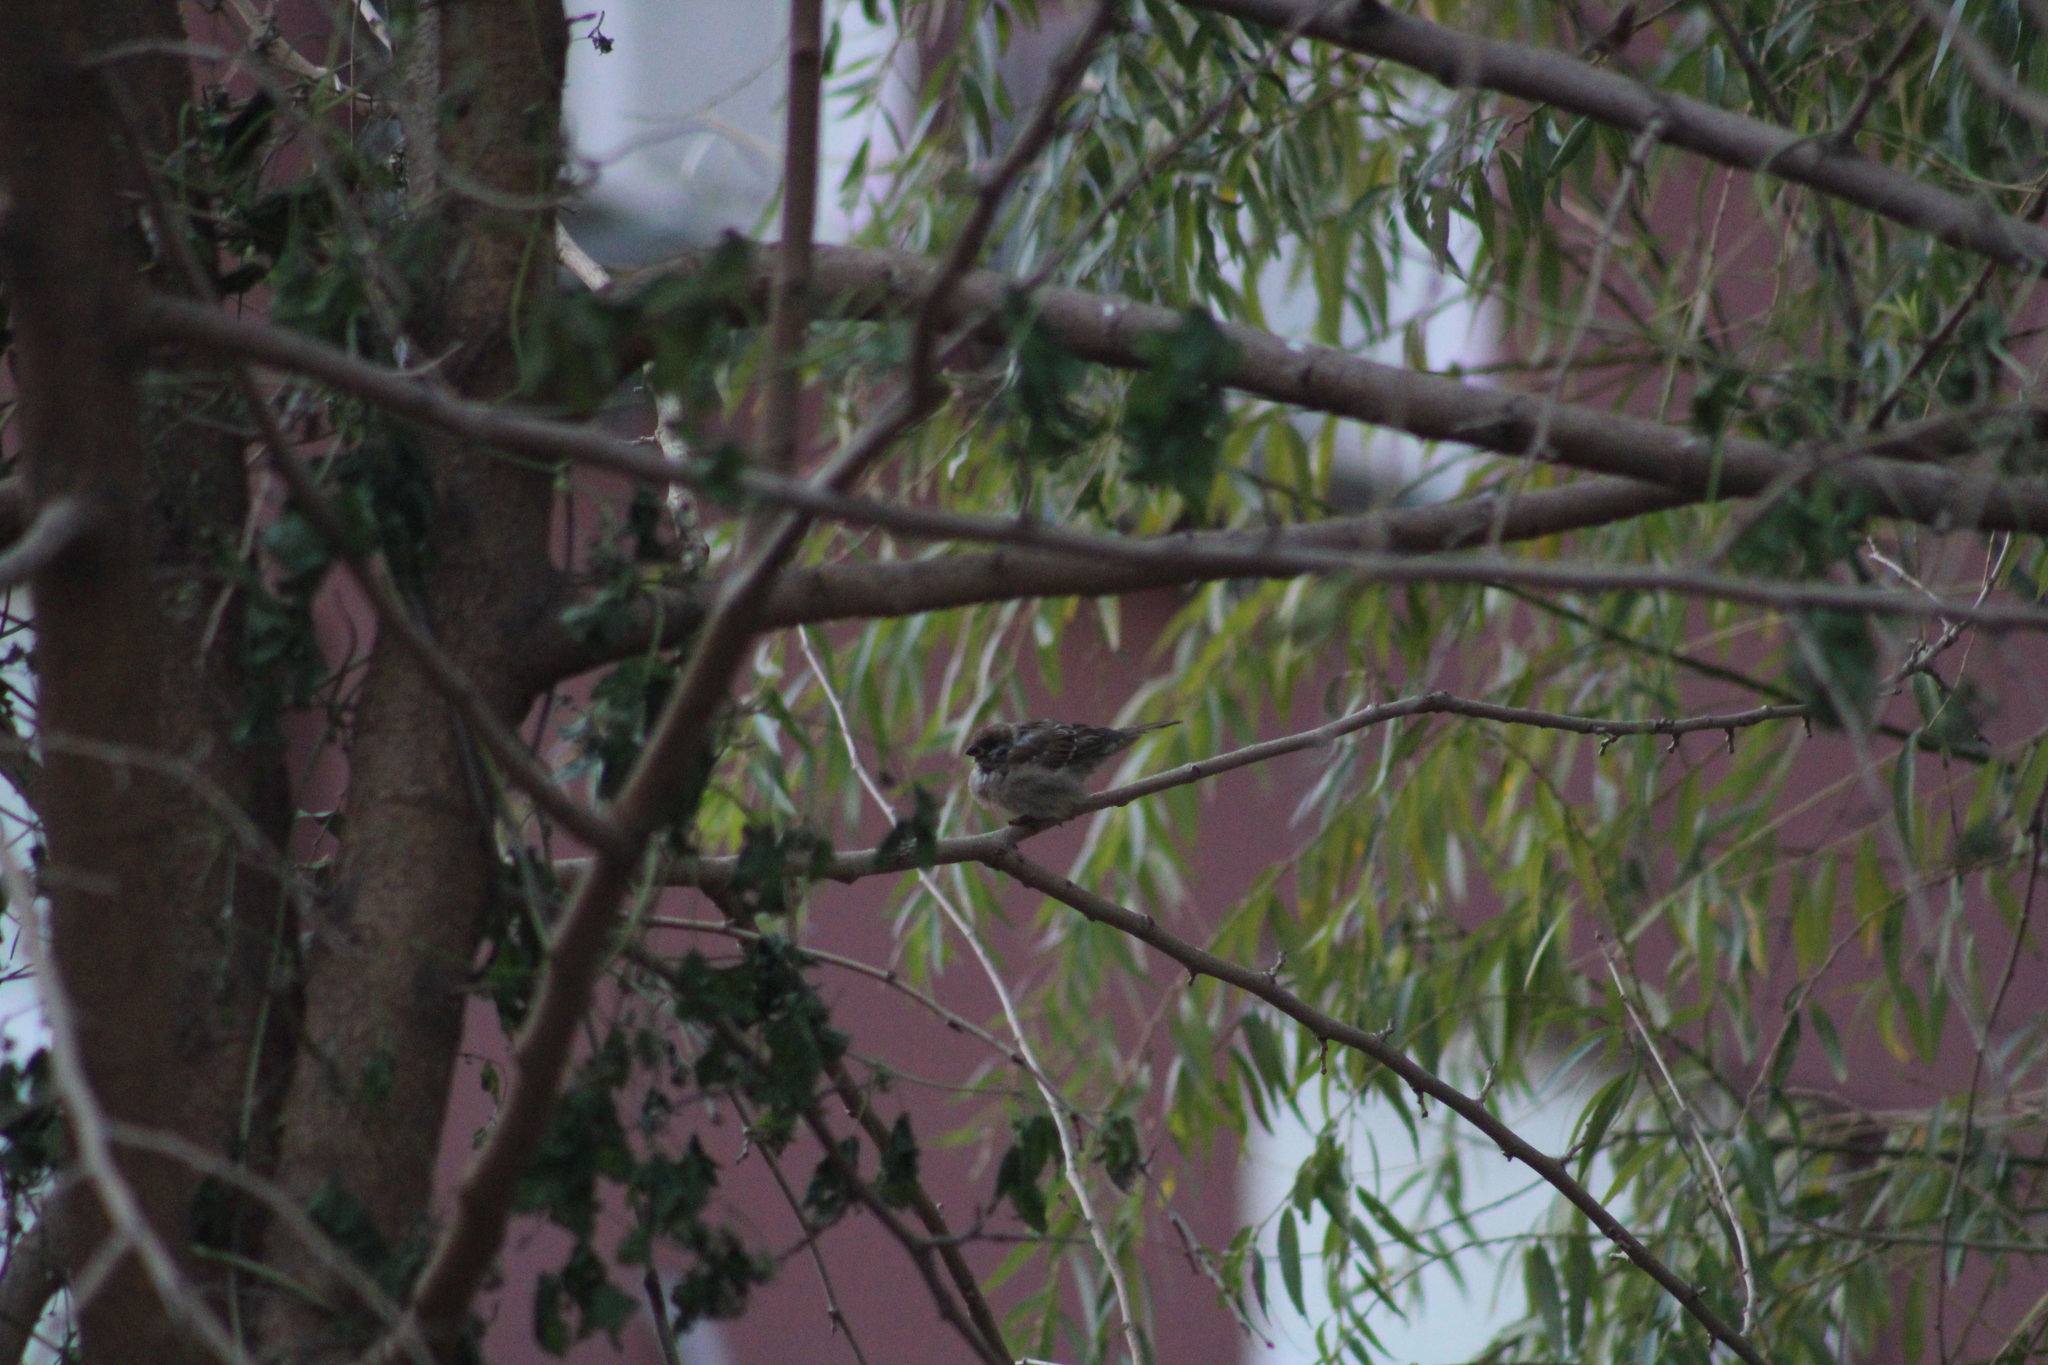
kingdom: Animalia
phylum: Chordata
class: Aves
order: Passeriformes
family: Passeridae
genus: Passer
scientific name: Passer montanus
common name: Eurasian tree sparrow
